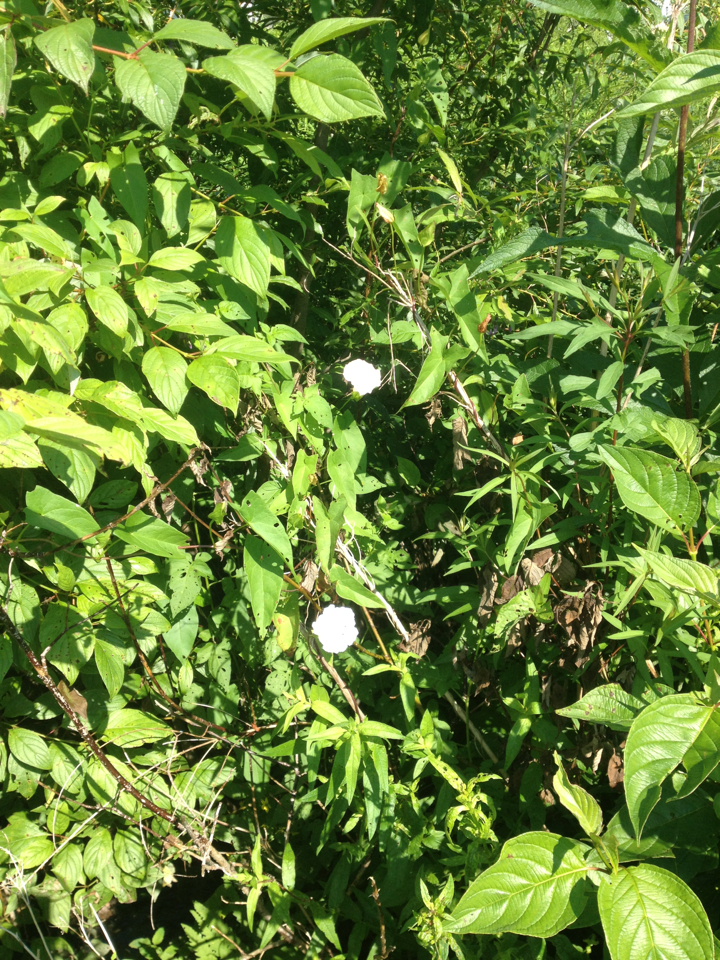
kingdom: Plantae
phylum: Tracheophyta
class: Magnoliopsida
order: Solanales
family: Convolvulaceae
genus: Calystegia
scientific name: Calystegia sepium
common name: Hedge bindweed
